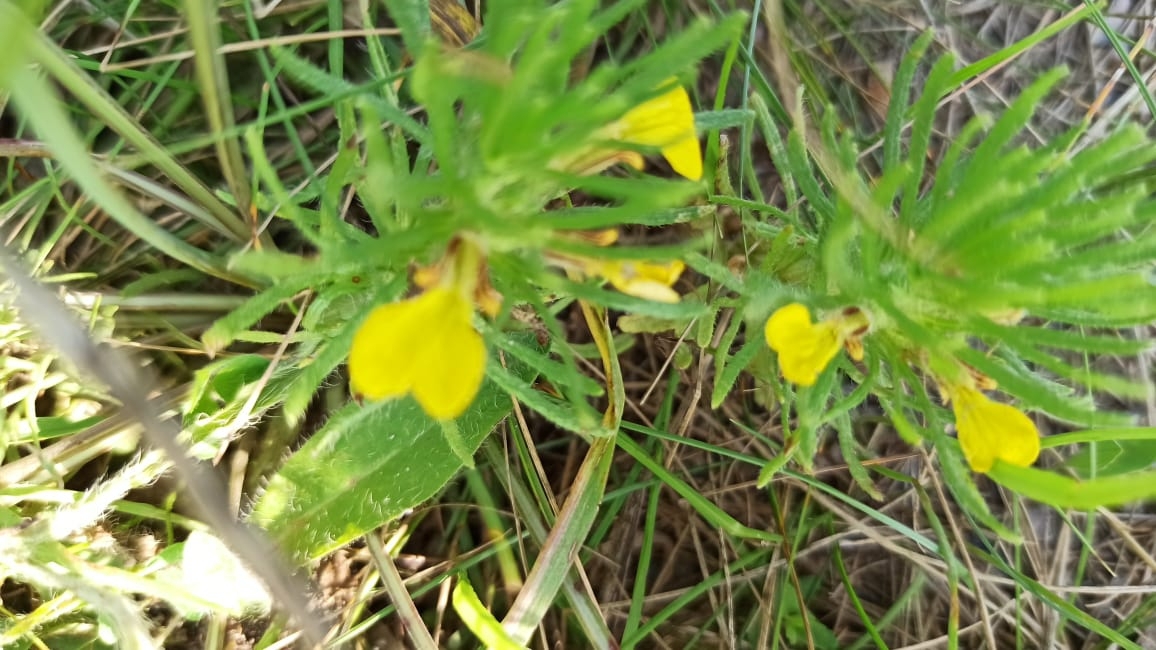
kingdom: Plantae
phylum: Tracheophyta
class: Magnoliopsida
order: Lamiales
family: Lamiaceae
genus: Ajuga
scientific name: Ajuga chamaepitys
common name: Ground-pine
